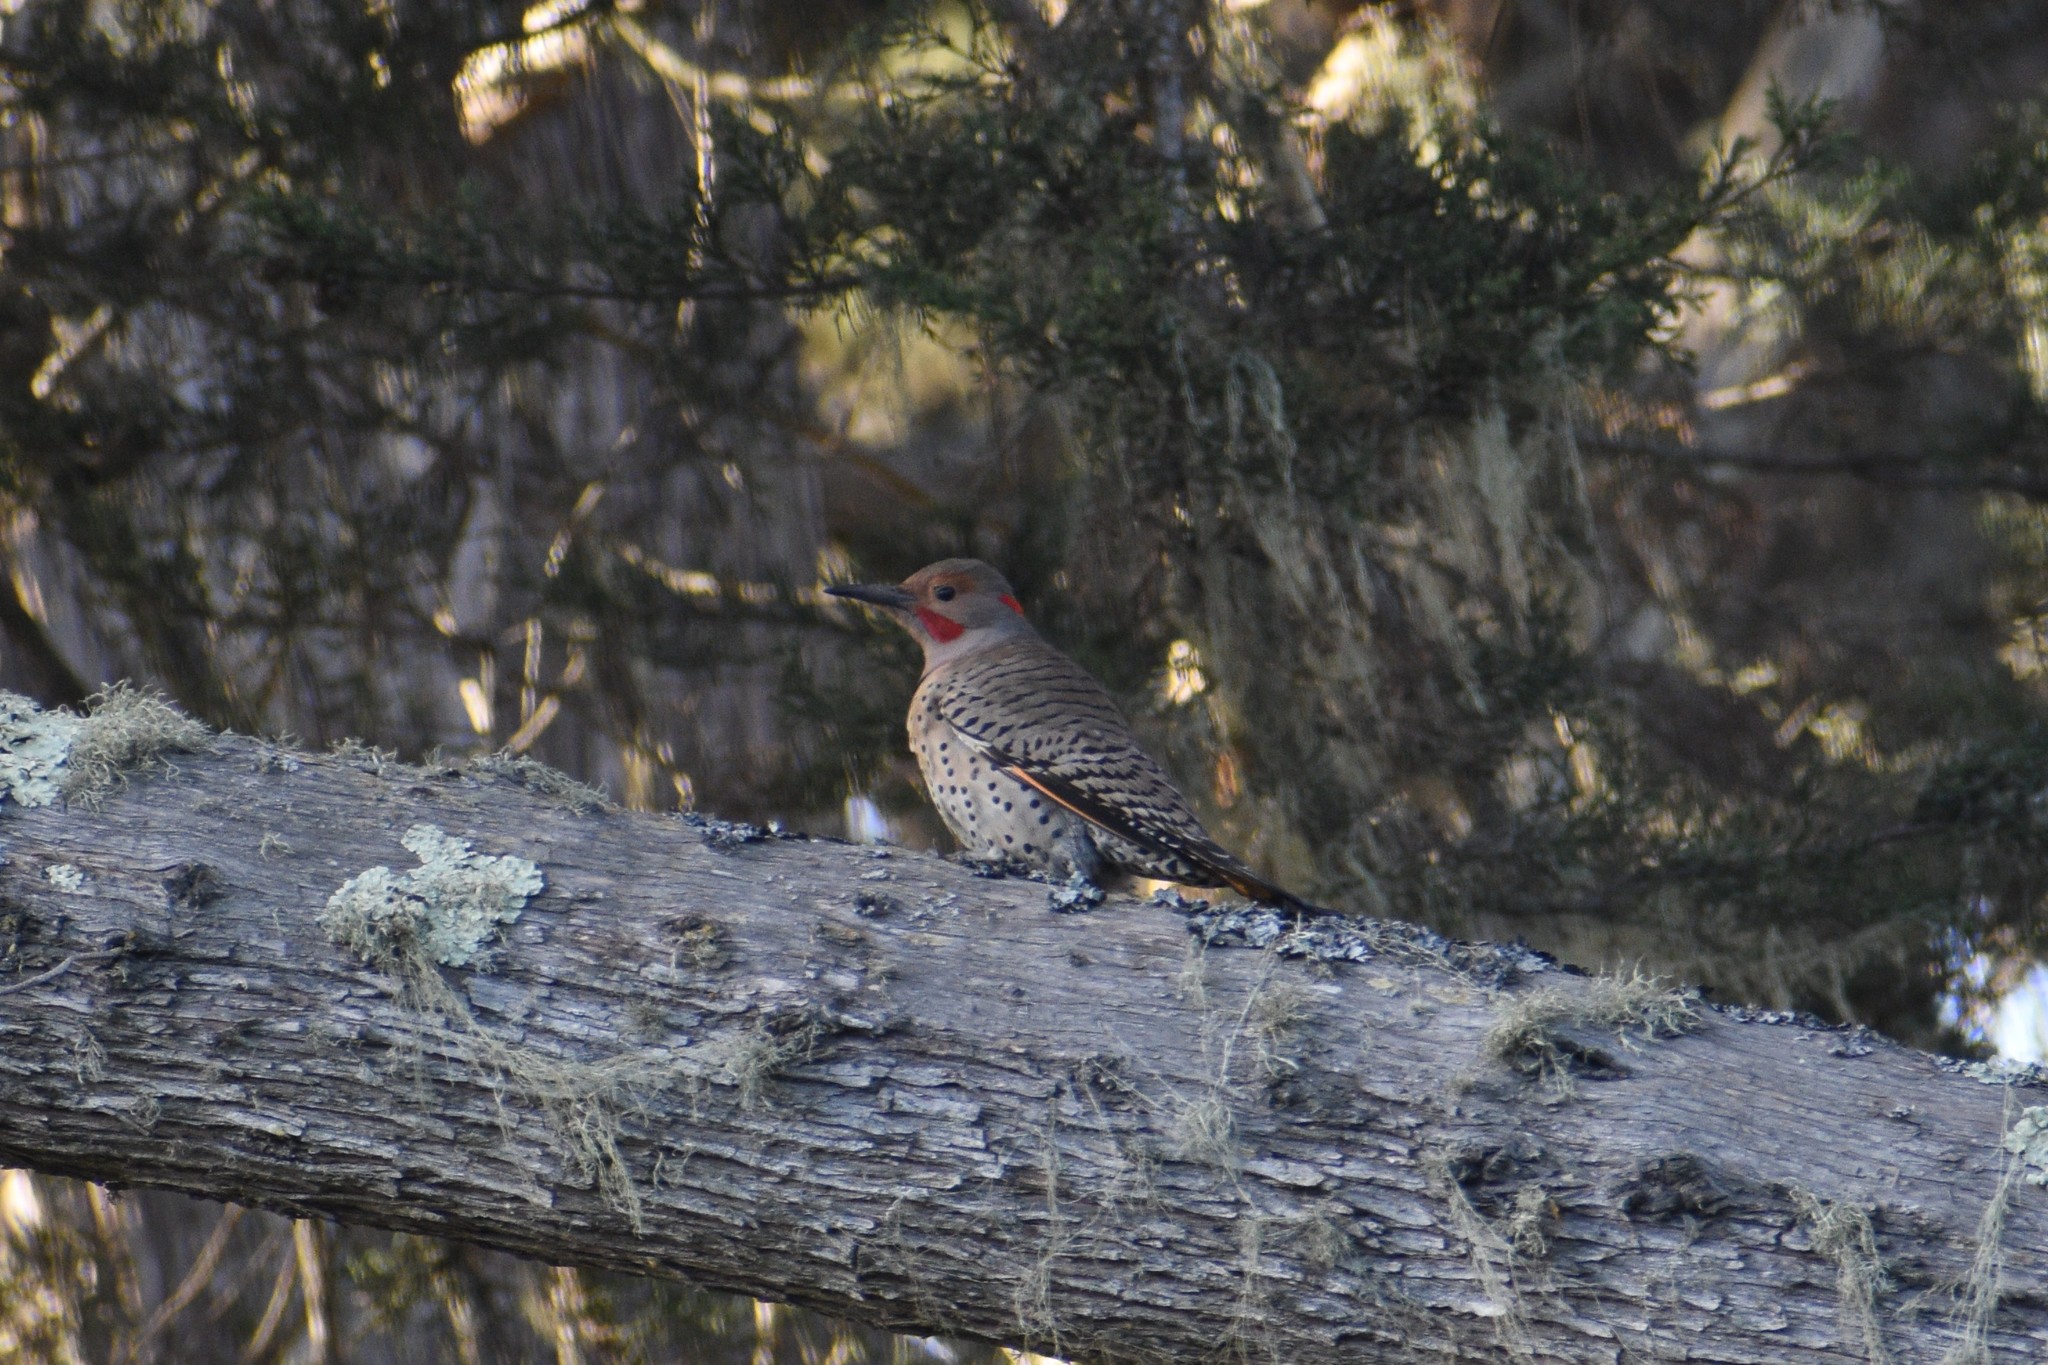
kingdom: Animalia
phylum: Chordata
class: Aves
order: Piciformes
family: Picidae
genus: Colaptes
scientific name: Colaptes auratus
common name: Northern flicker
